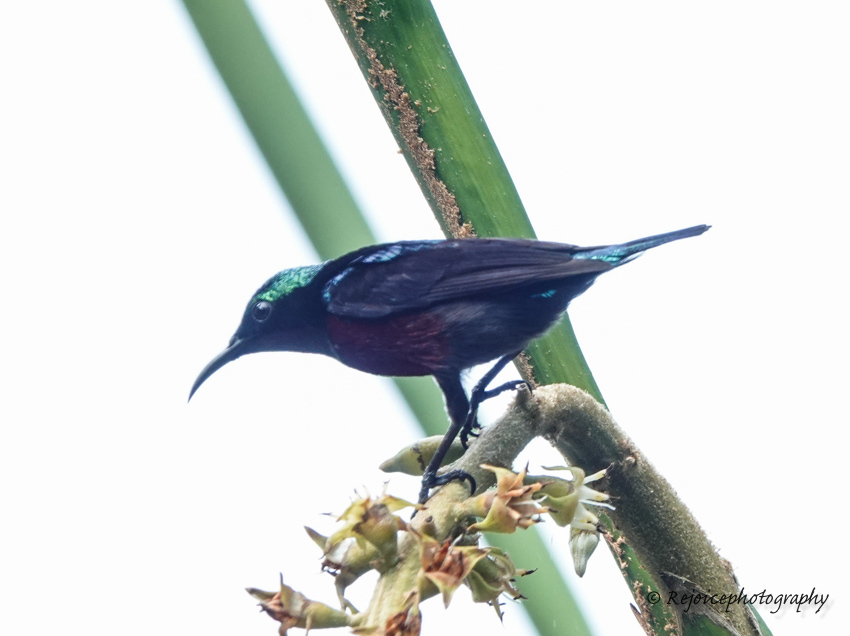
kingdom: Animalia
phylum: Chordata
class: Aves
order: Passeriformes
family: Nectariniidae
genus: Leptocoma
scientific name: Leptocoma brasiliana
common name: Van hasselt's sunbird
